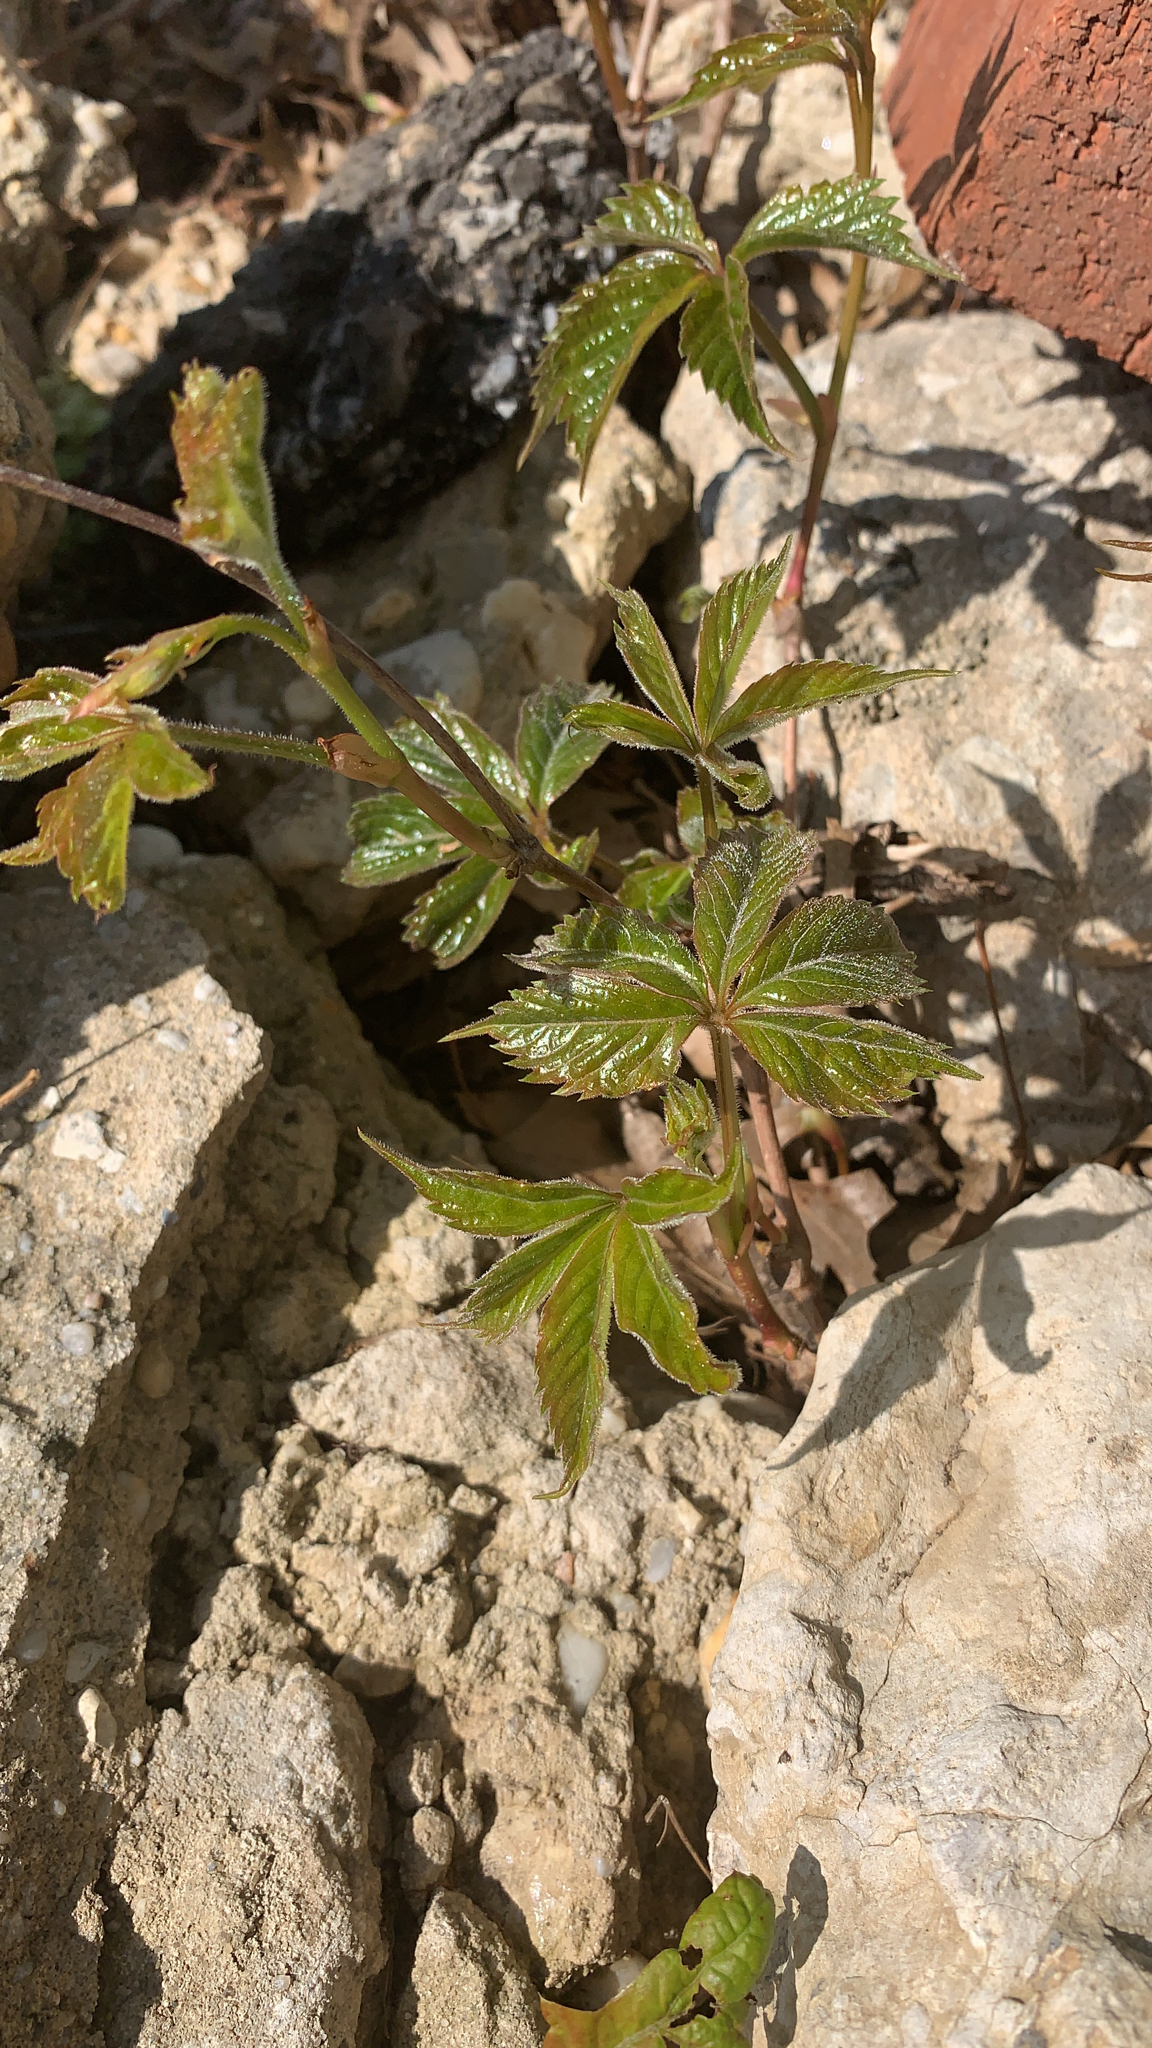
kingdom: Plantae
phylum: Tracheophyta
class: Magnoliopsida
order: Vitales
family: Vitaceae
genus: Parthenocissus
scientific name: Parthenocissus quinquefolia
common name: Virginia-creeper
